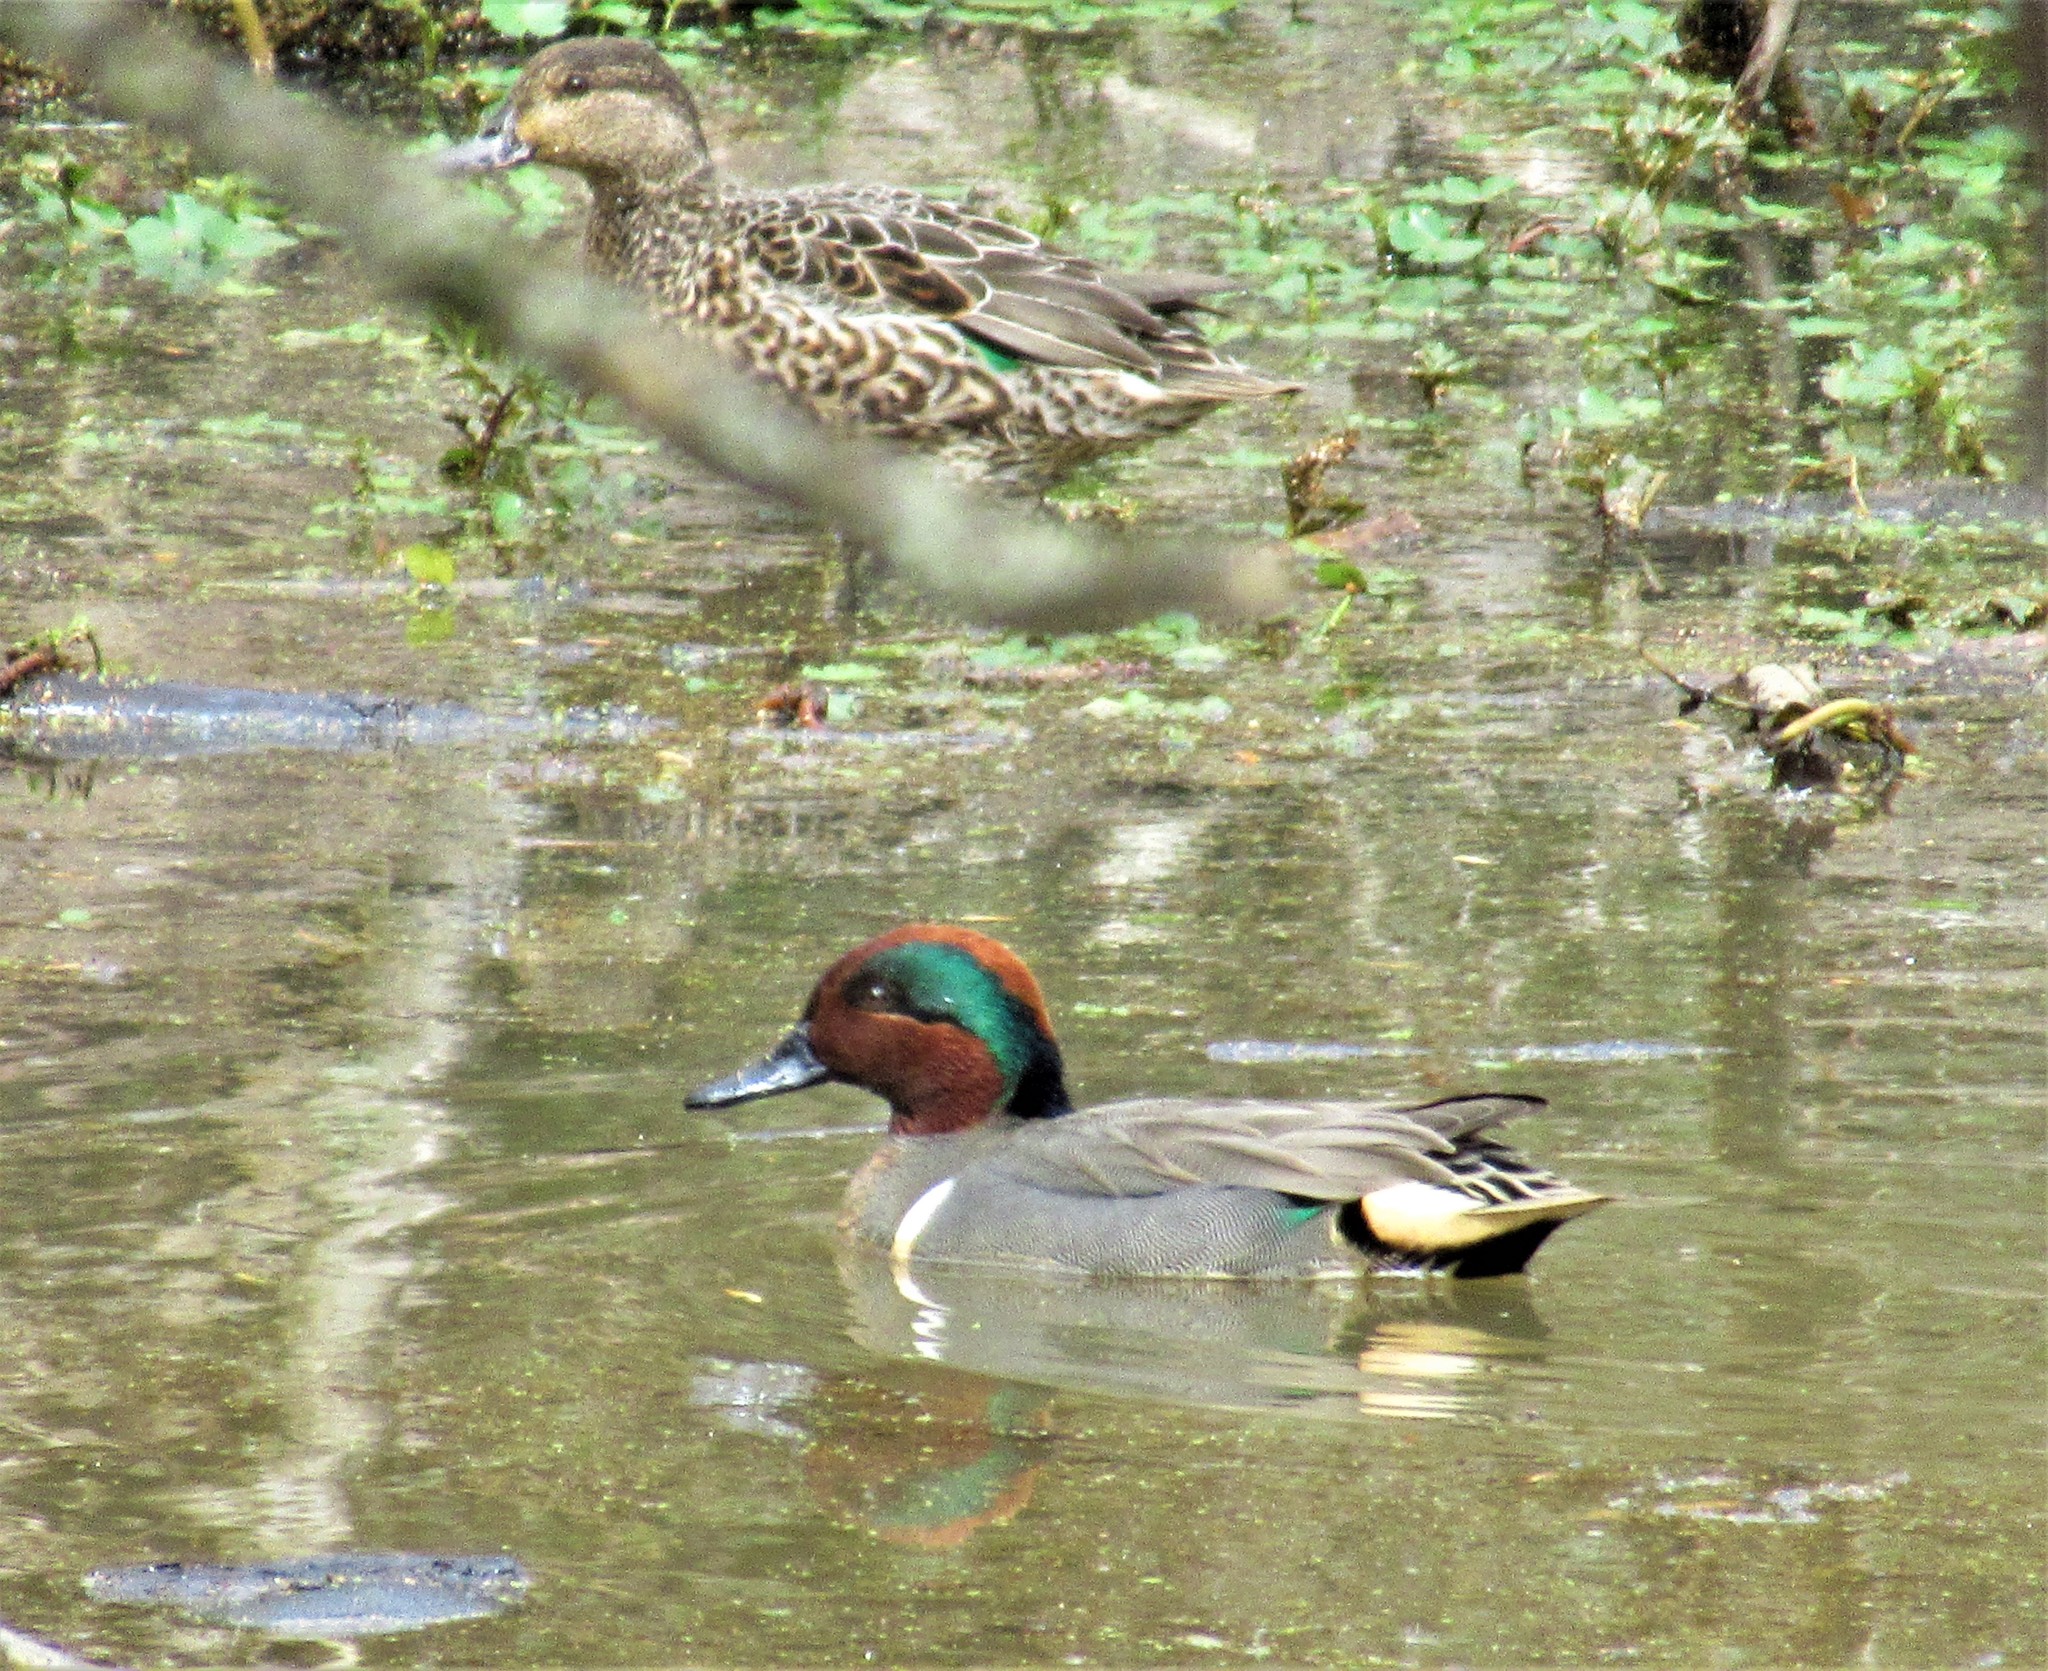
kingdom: Animalia
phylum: Chordata
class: Aves
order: Anseriformes
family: Anatidae
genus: Anas
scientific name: Anas crecca
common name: Eurasian teal
